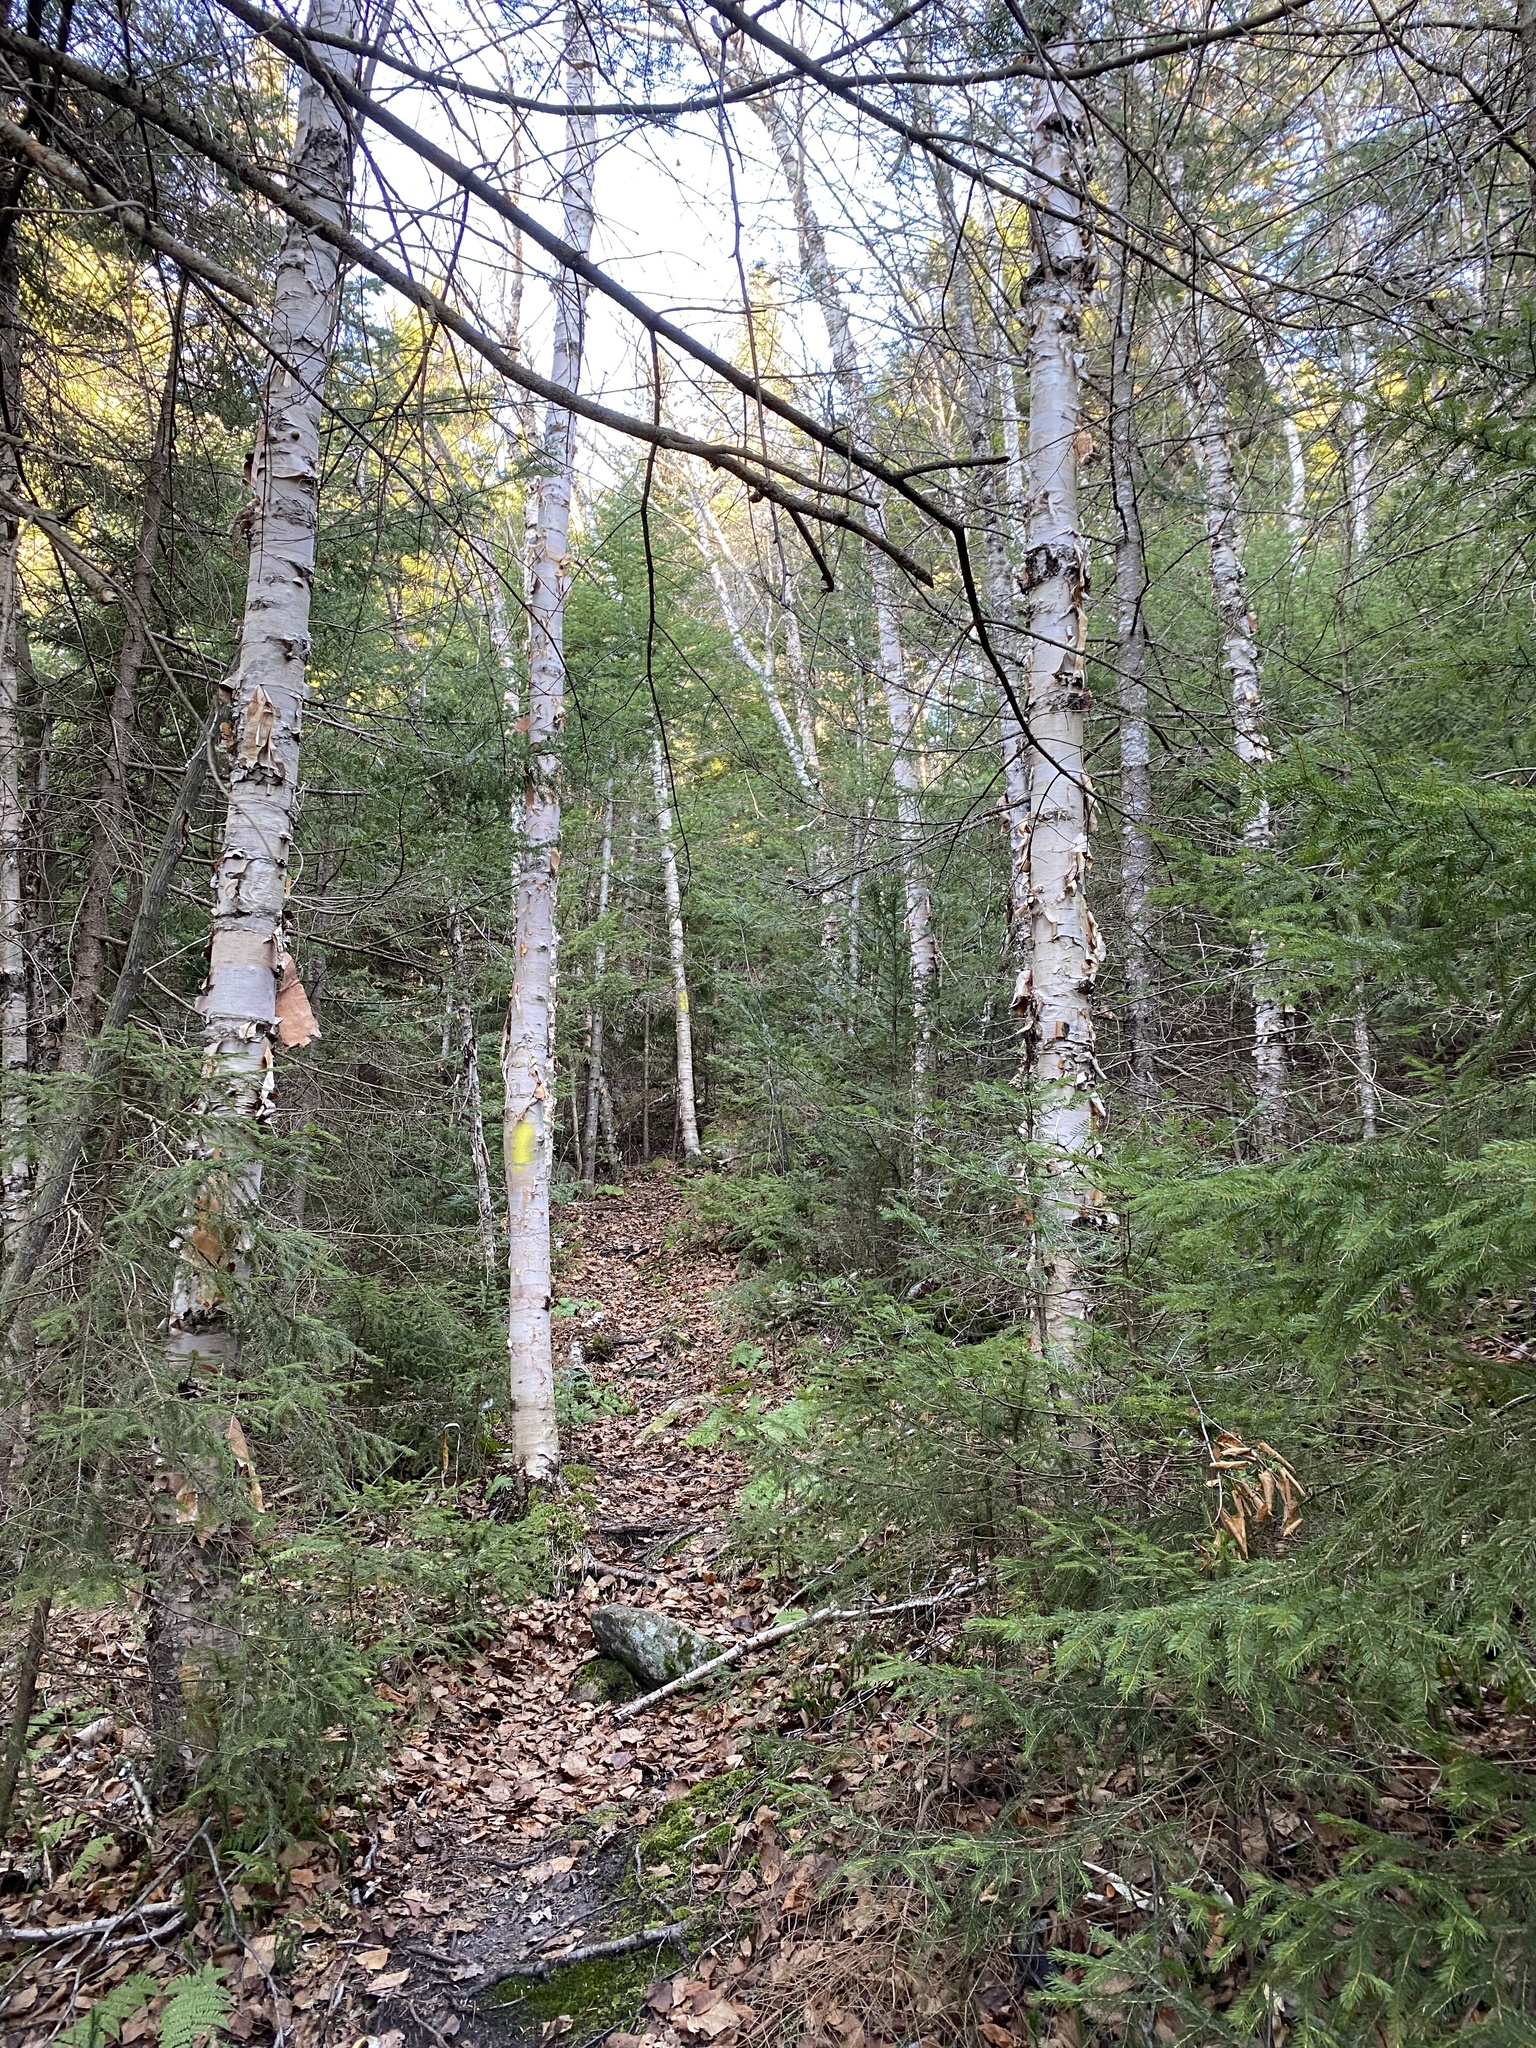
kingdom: Plantae
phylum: Tracheophyta
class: Magnoliopsida
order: Fagales
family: Betulaceae
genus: Betula
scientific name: Betula cordifolia
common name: Mountain white birch
